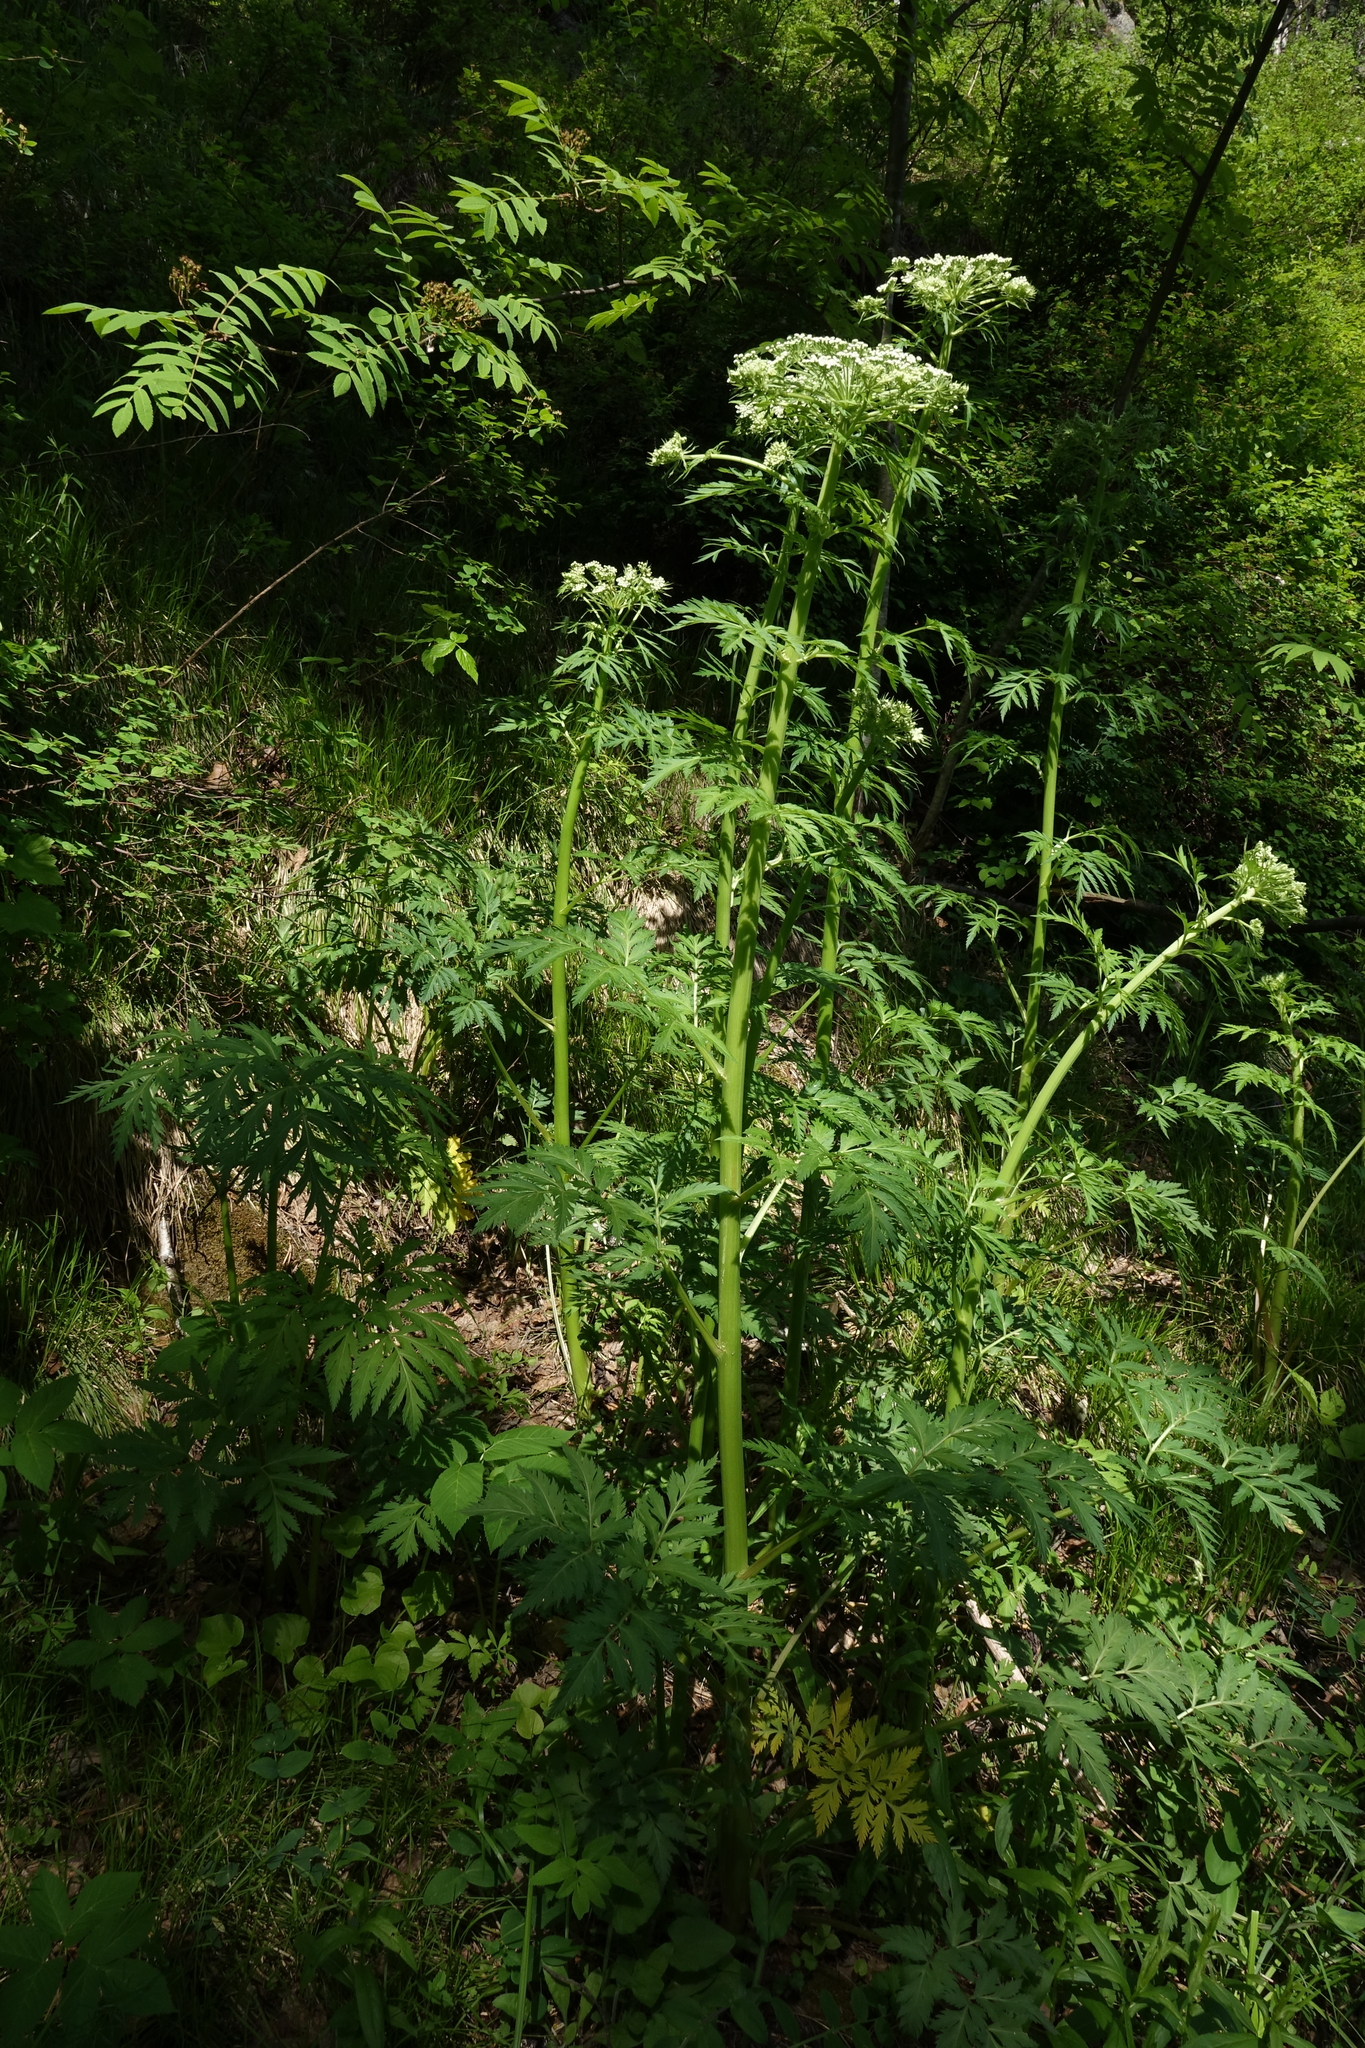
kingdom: Plantae
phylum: Tracheophyta
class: Magnoliopsida
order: Apiales
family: Apiaceae
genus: Pleurospermum
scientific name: Pleurospermum uralense
